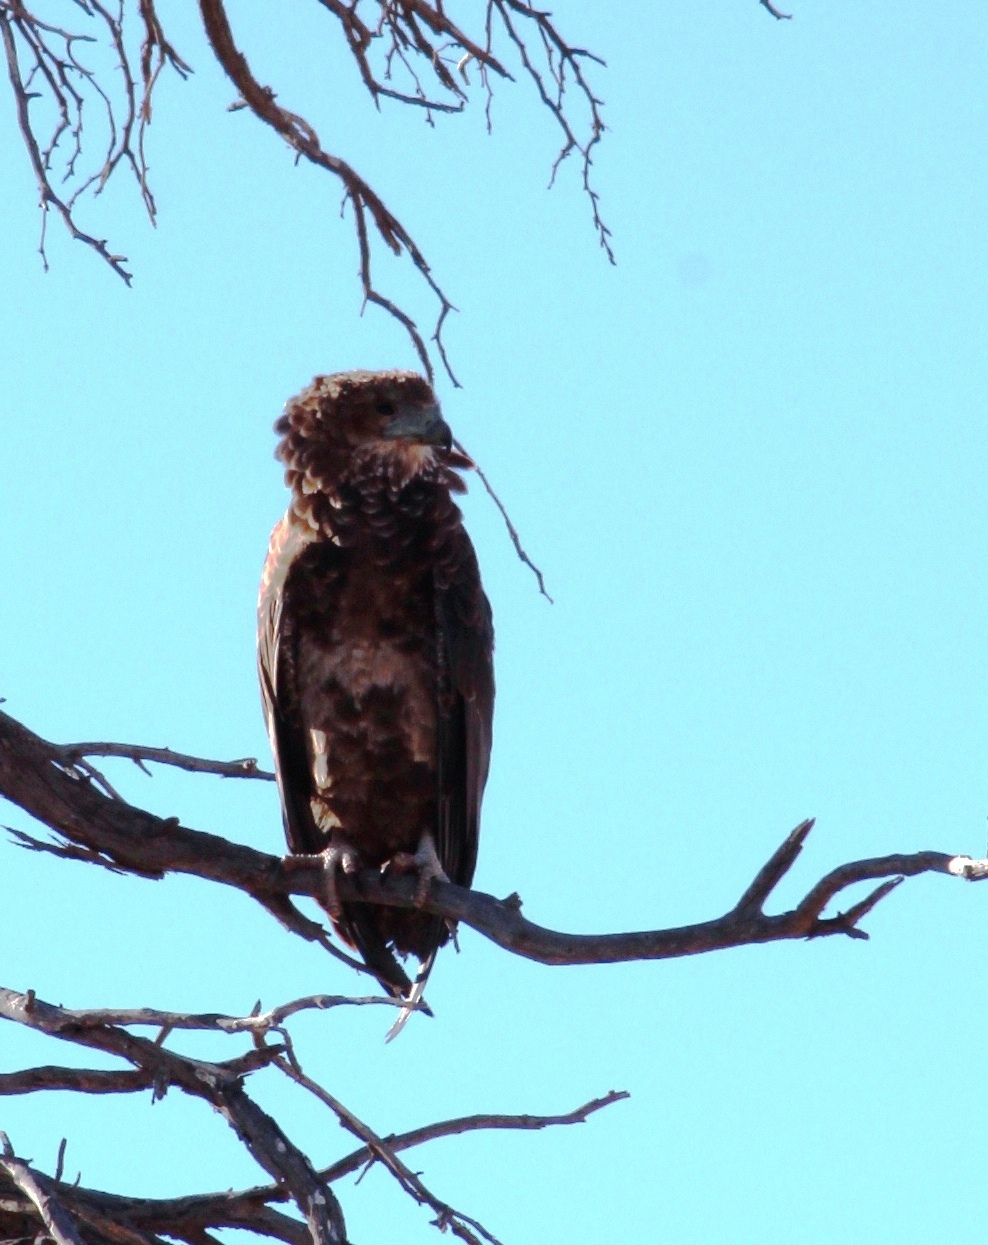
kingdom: Animalia
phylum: Chordata
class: Aves
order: Accipitriformes
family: Accipitridae
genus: Terathopius
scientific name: Terathopius ecaudatus
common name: Bateleur
